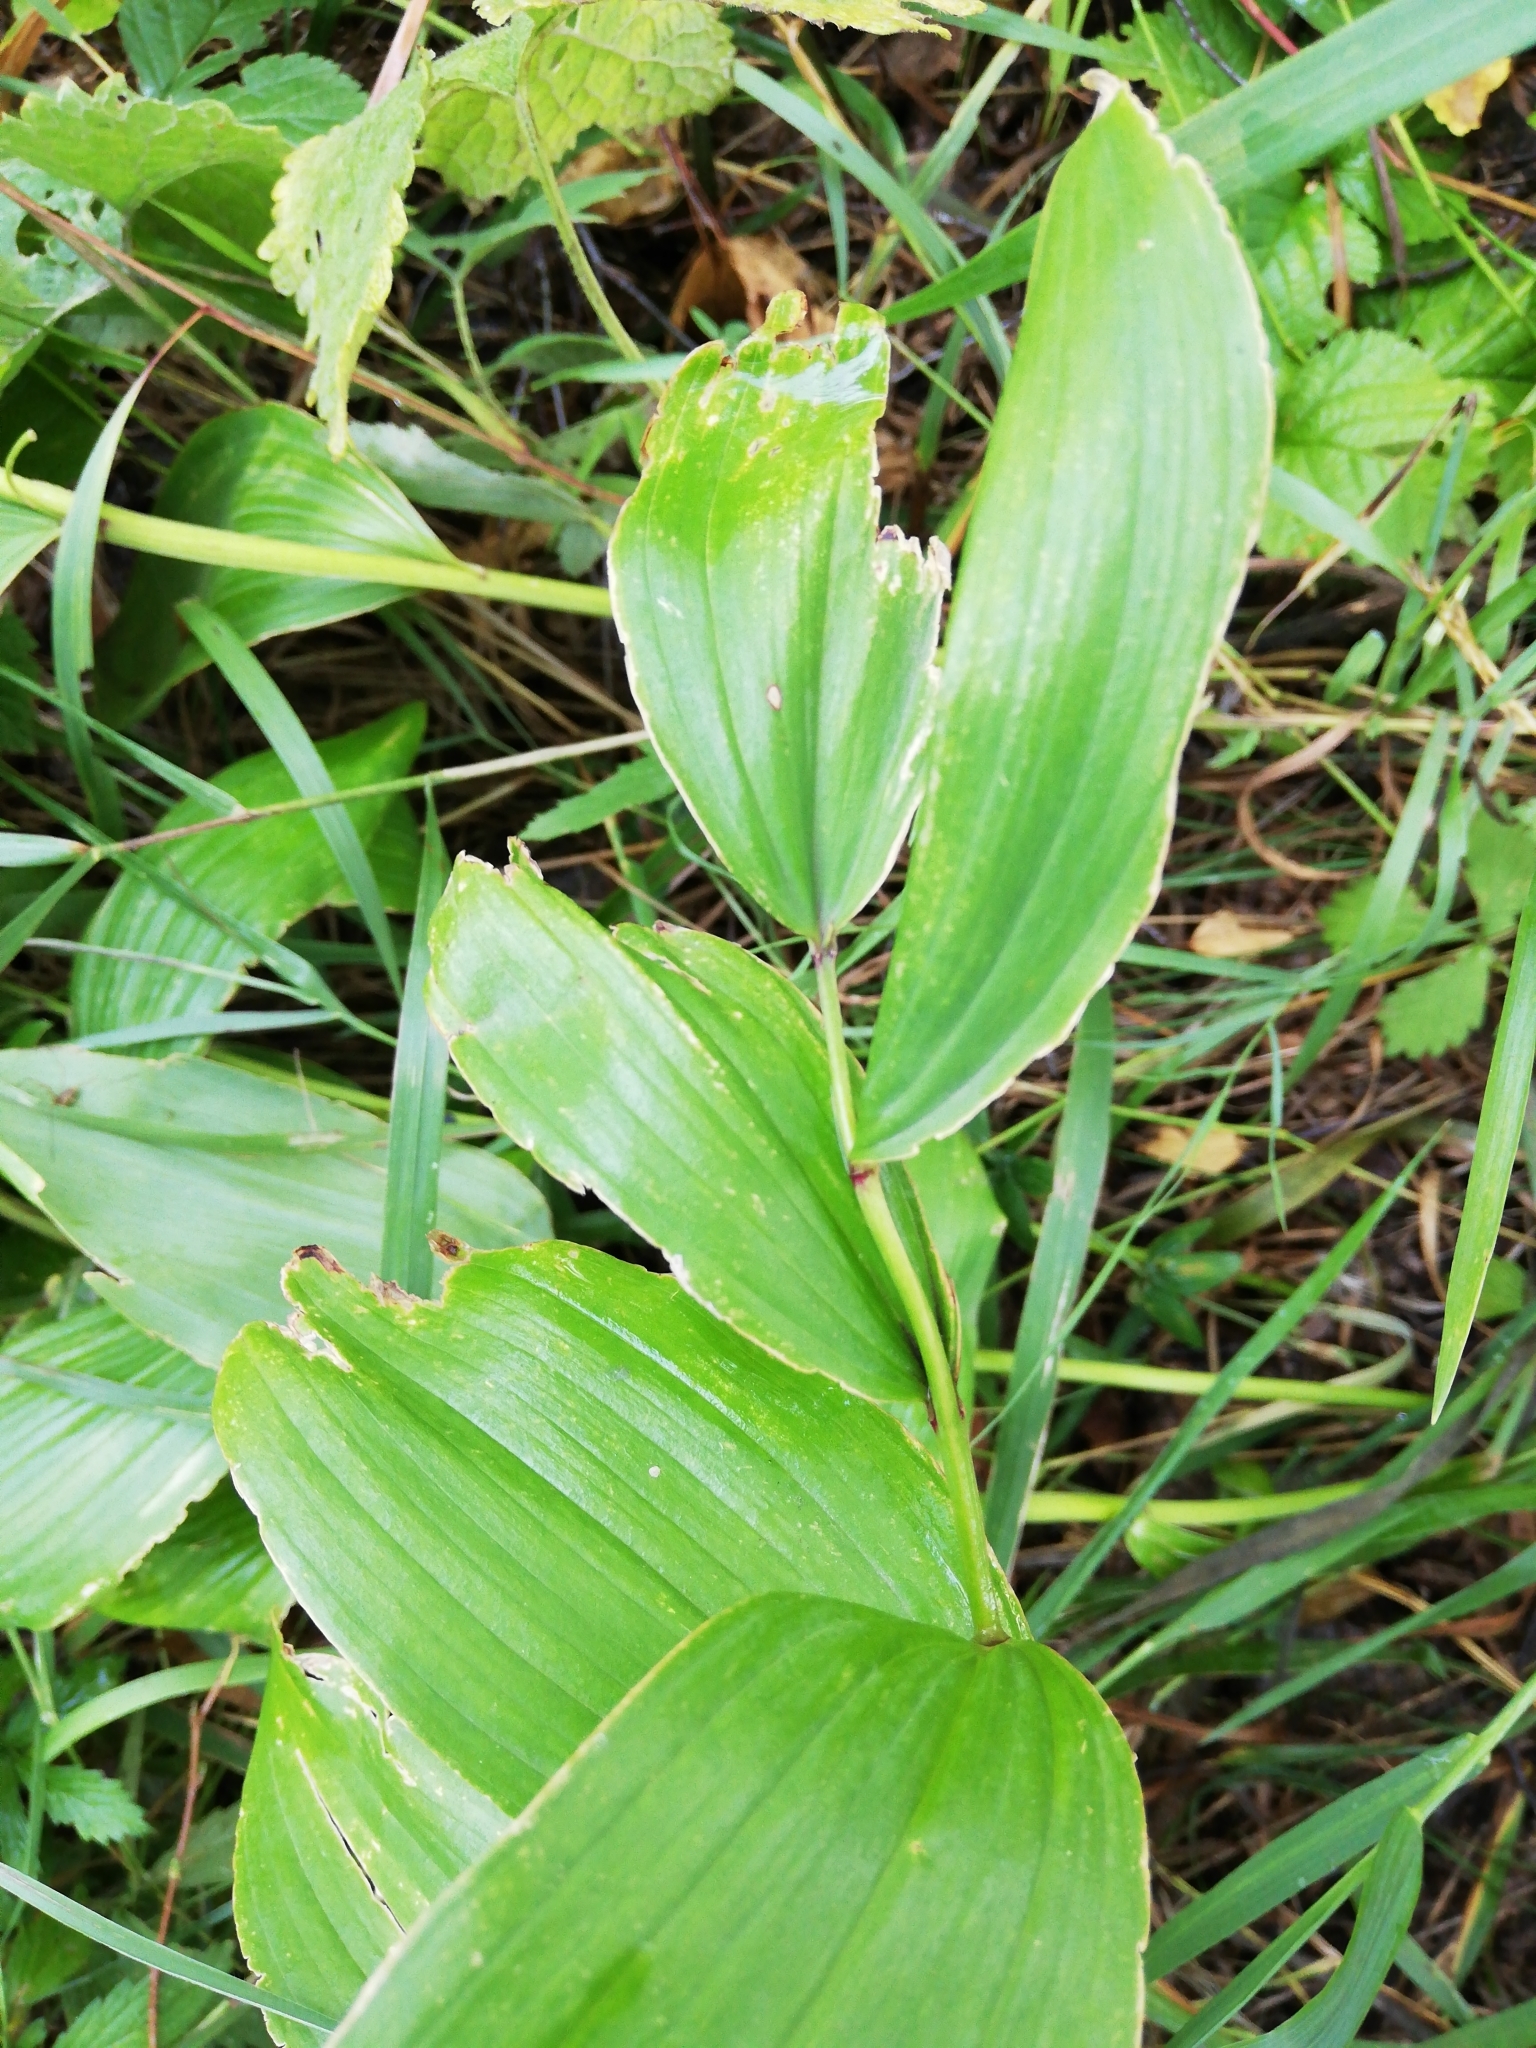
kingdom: Plantae
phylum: Tracheophyta
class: Liliopsida
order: Asparagales
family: Asparagaceae
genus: Polygonatum
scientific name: Polygonatum odoratum
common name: Angular solomon's-seal
